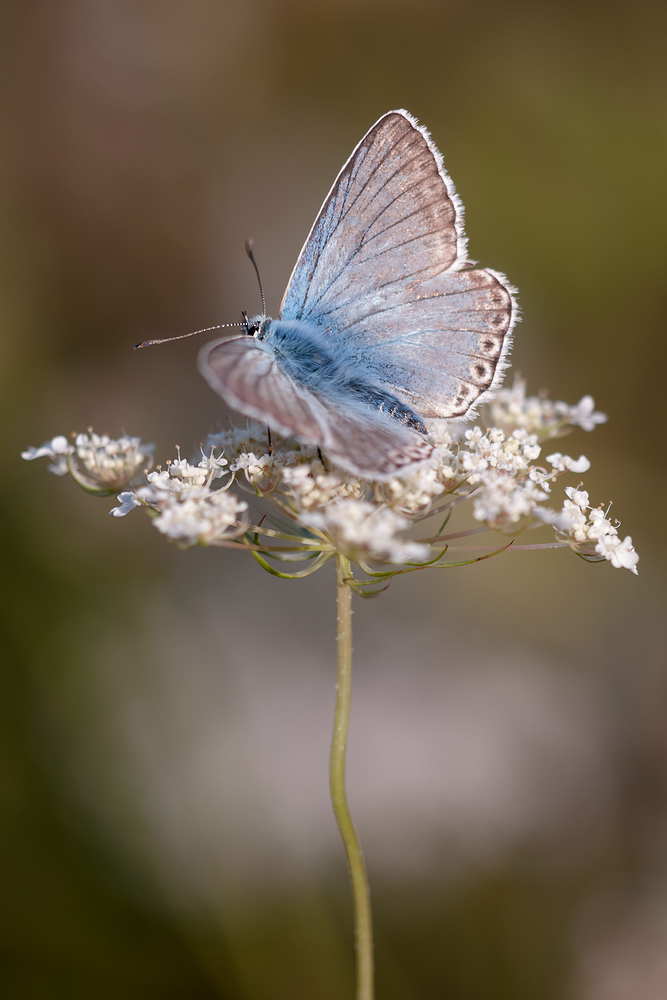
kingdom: Animalia
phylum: Arthropoda
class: Insecta
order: Lepidoptera
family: Lycaenidae
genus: Lysandra
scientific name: Lysandra coridon
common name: Chalkhill blue
